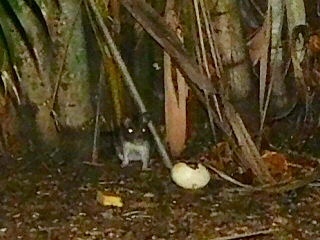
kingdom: Animalia
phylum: Chordata
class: Mammalia
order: Rodentia
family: Muridae
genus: Rattus
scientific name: Rattus rattus
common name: Black rat
